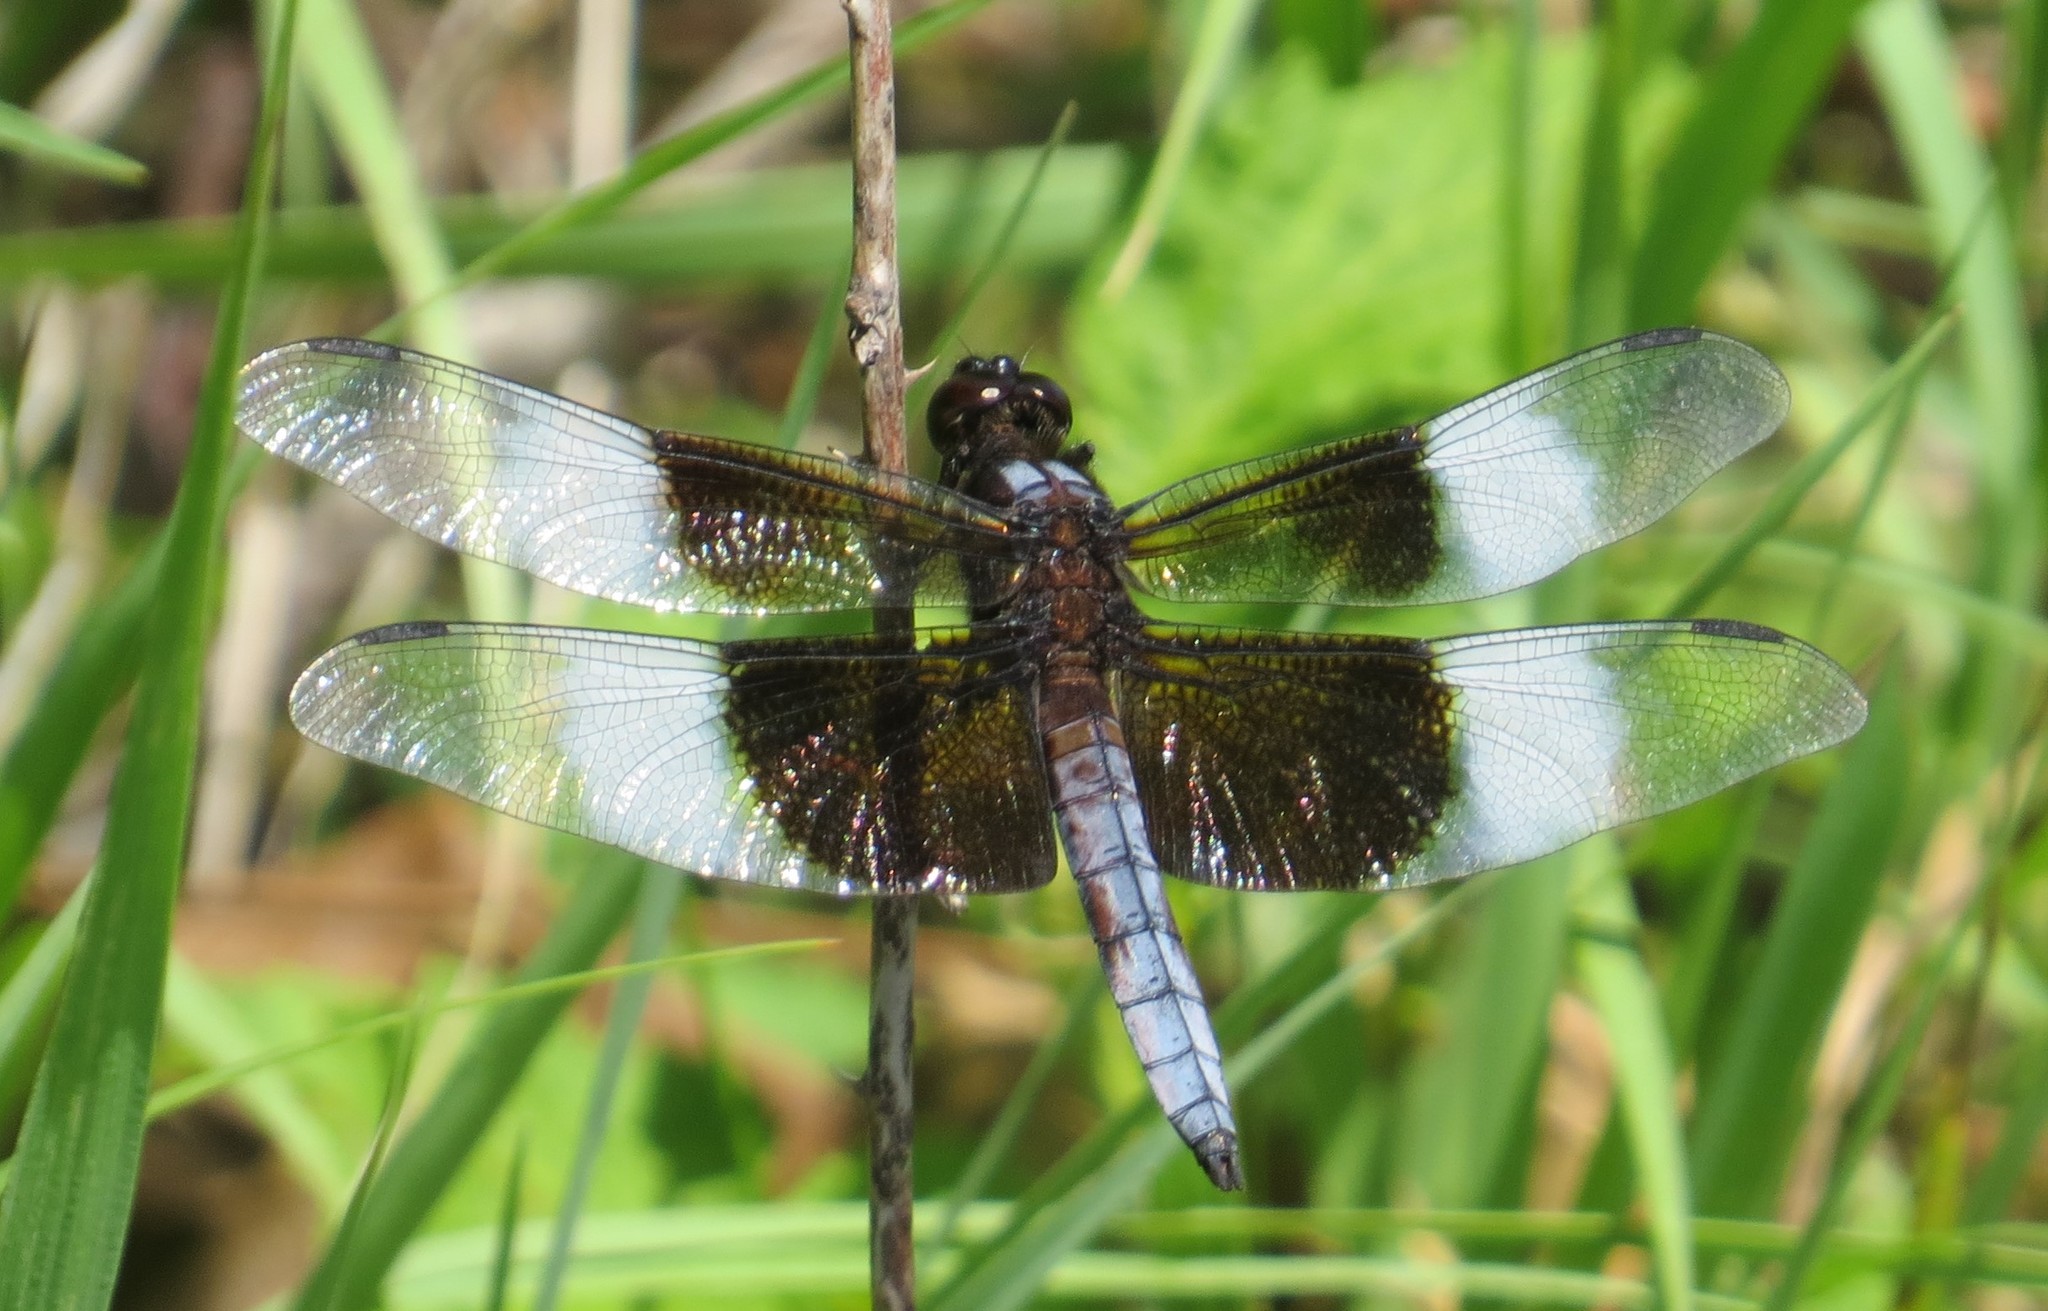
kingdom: Animalia
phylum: Arthropoda
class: Insecta
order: Odonata
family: Libellulidae
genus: Libellula
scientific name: Libellula luctuosa
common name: Widow skimmer
